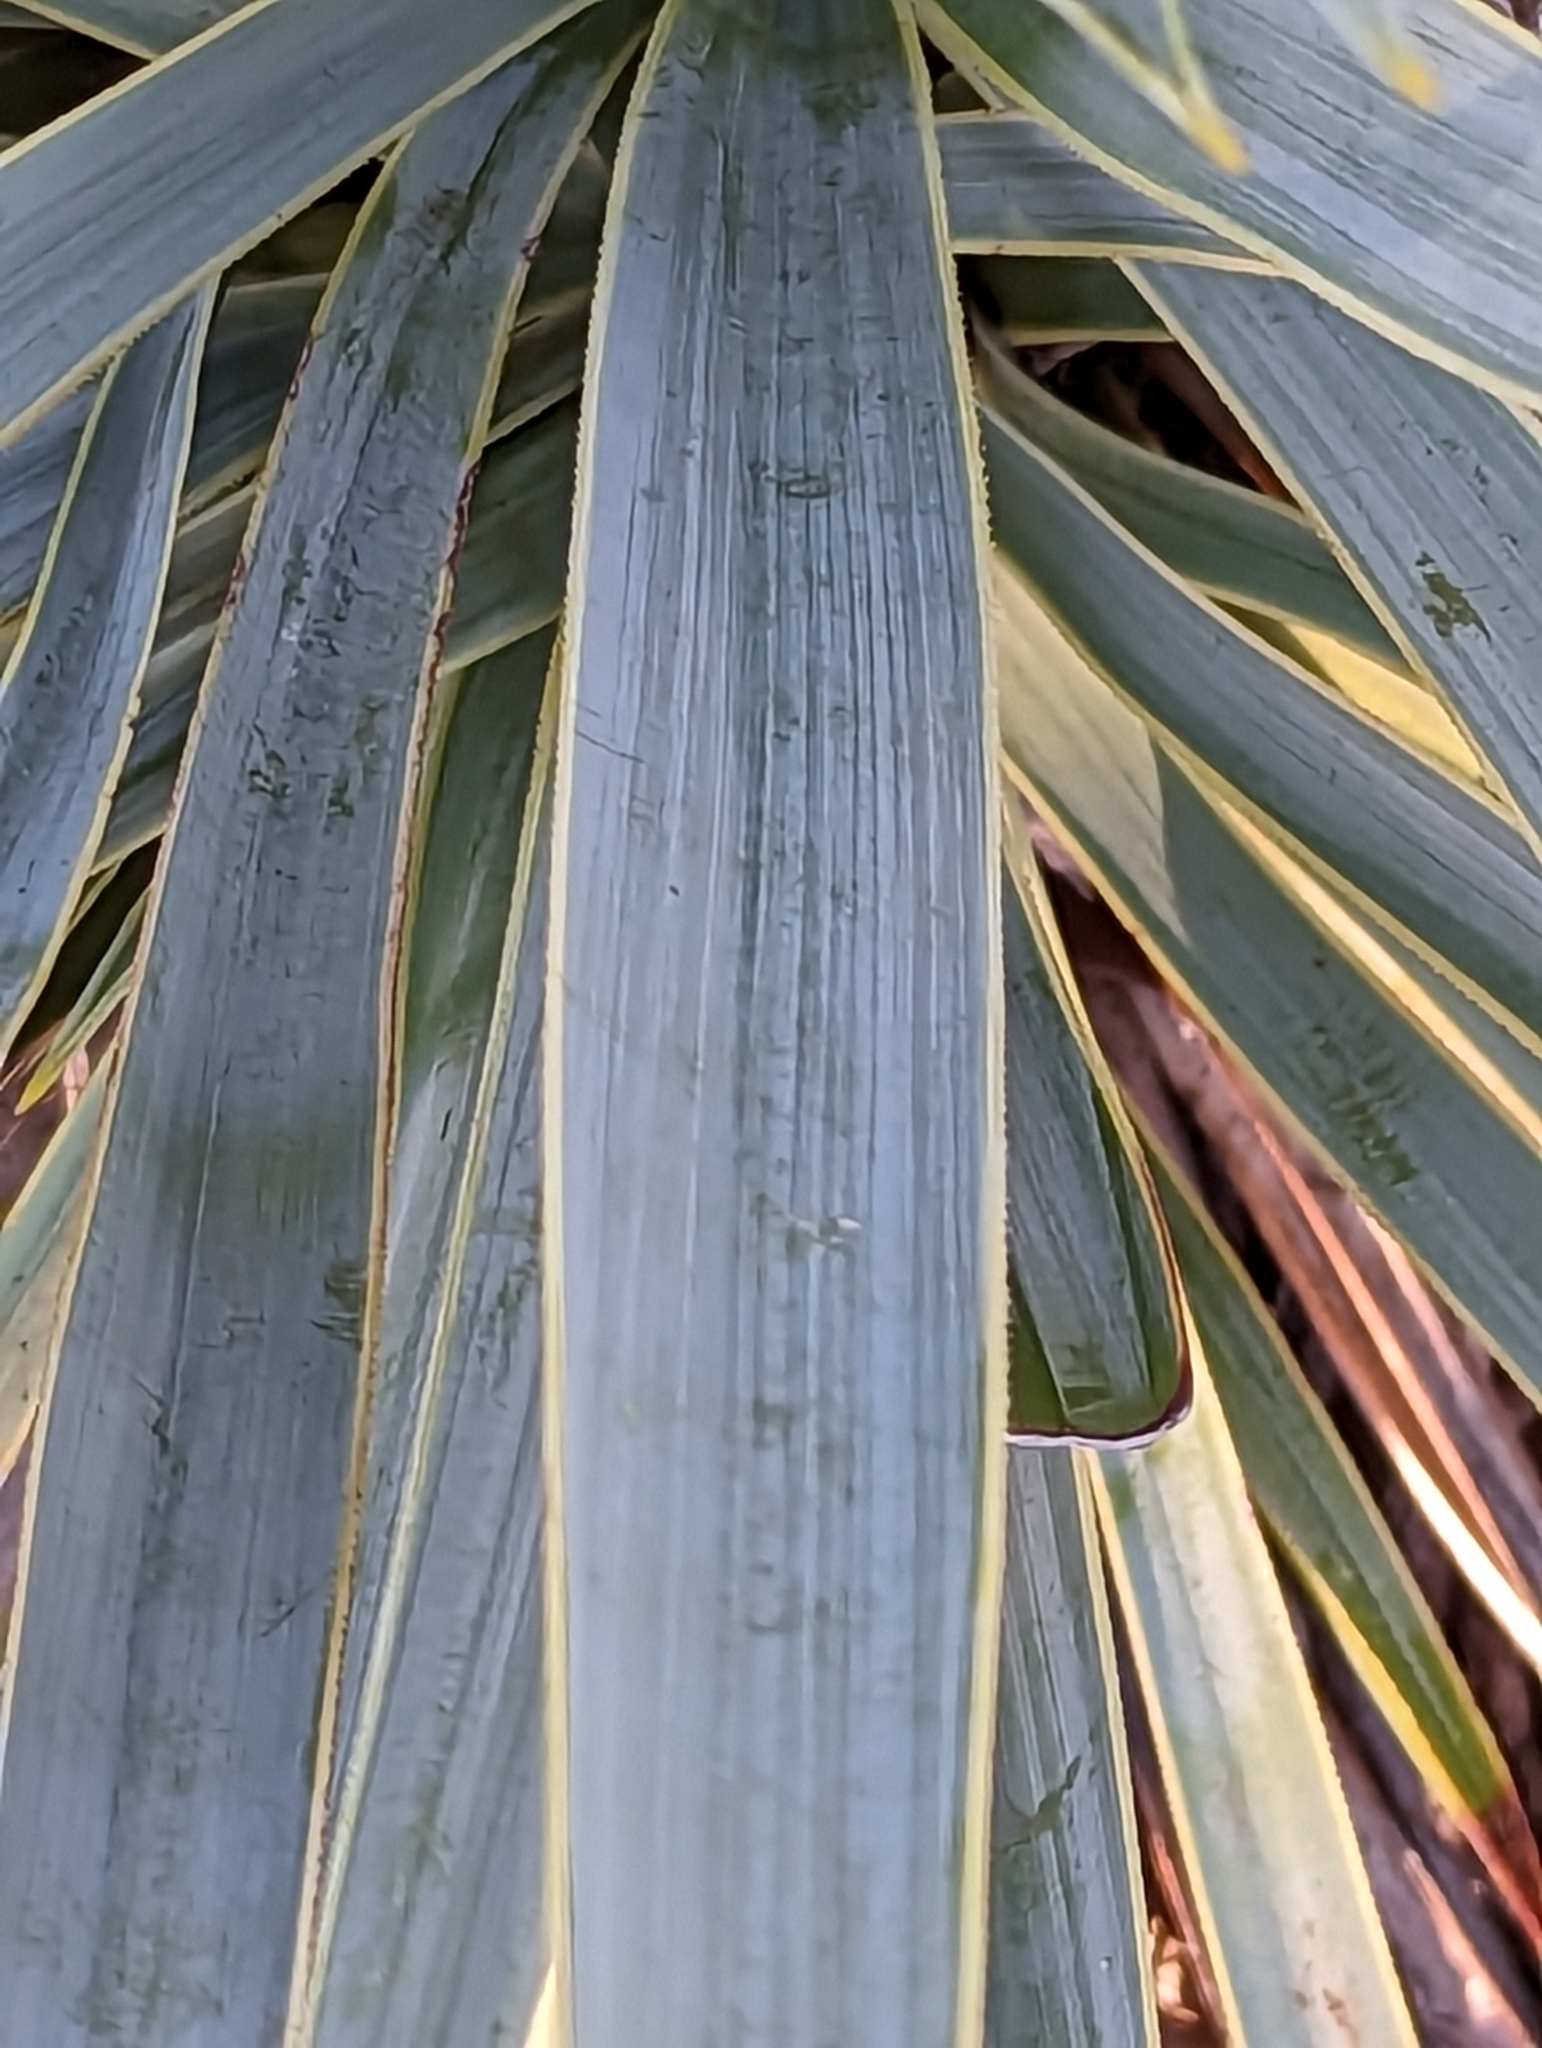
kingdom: Plantae
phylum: Tracheophyta
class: Liliopsida
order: Asparagales
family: Asparagaceae
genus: Yucca
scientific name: Yucca pallida
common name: Pale leaf yucca
